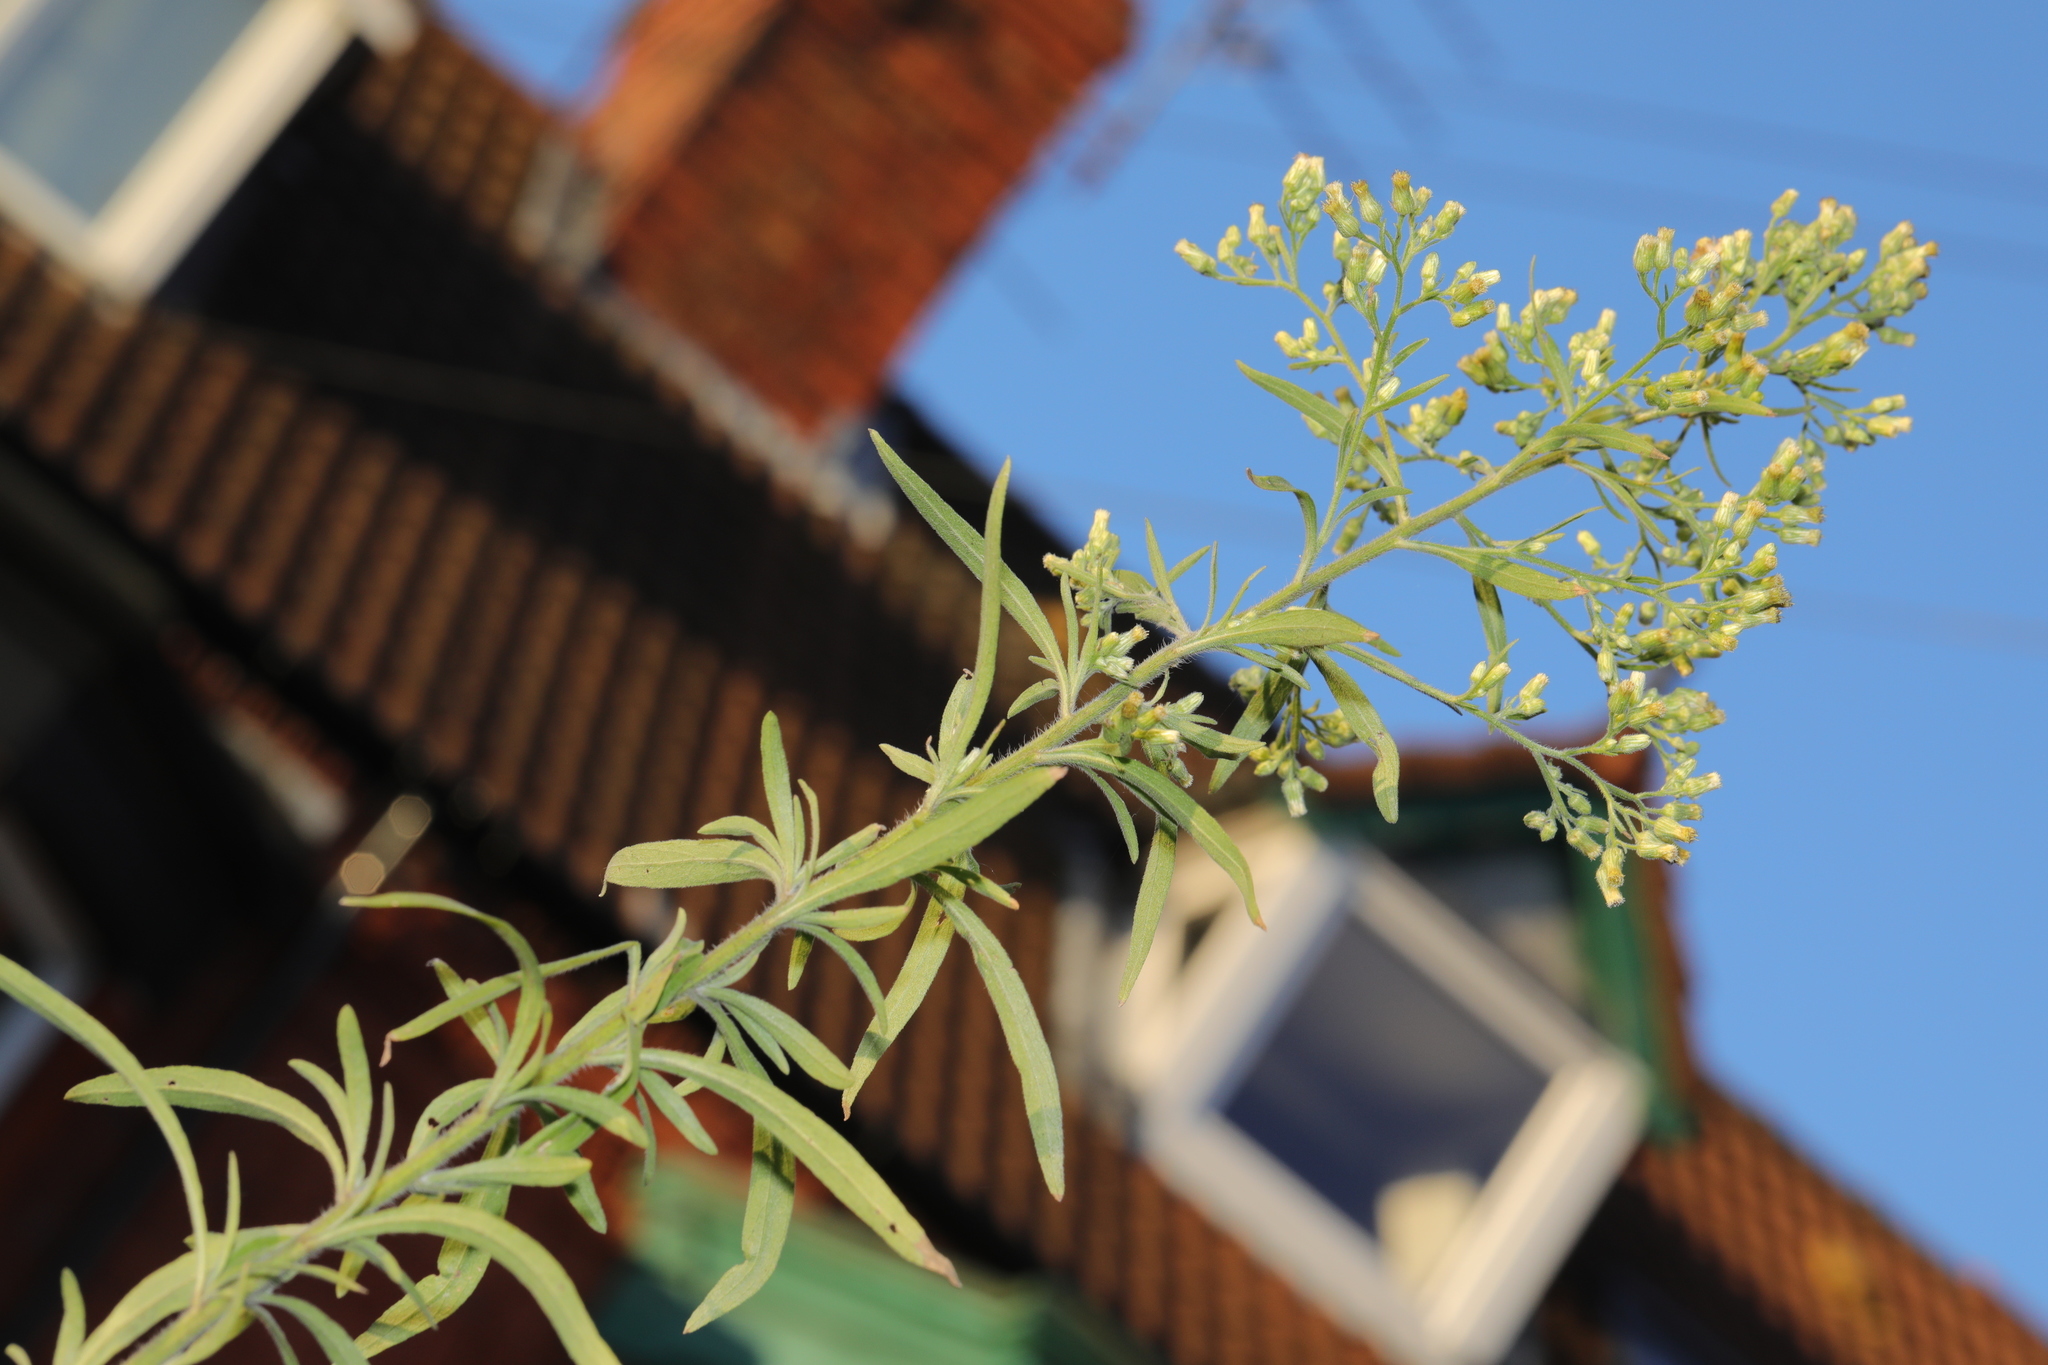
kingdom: Plantae
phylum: Tracheophyta
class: Magnoliopsida
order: Asterales
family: Asteraceae
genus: Erigeron
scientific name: Erigeron canadensis
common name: Canadian fleabane
